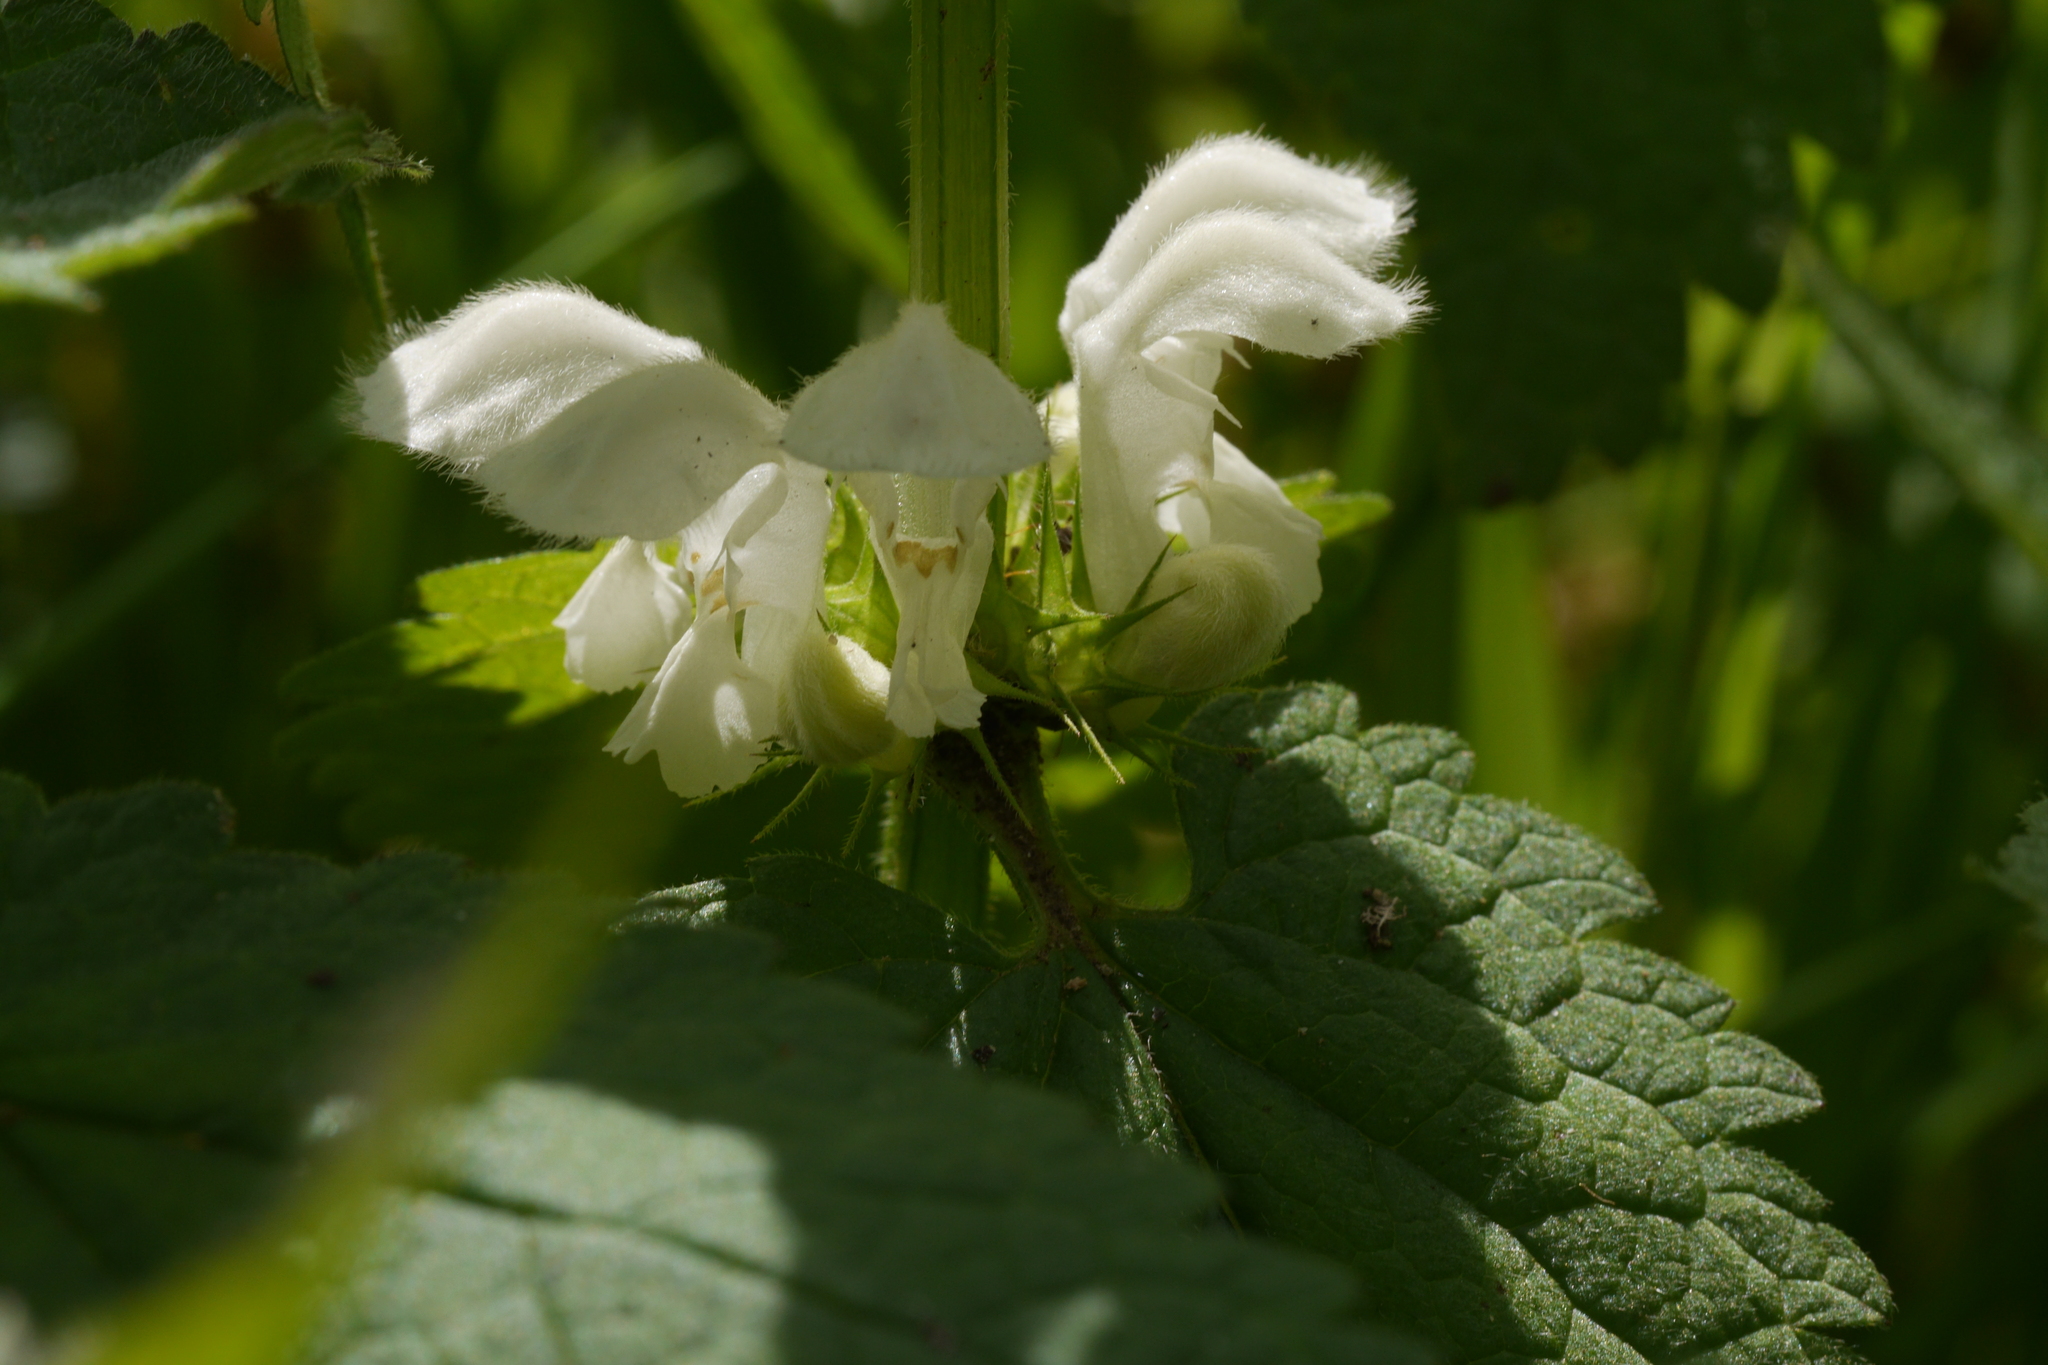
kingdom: Plantae
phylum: Tracheophyta
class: Magnoliopsida
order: Lamiales
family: Lamiaceae
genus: Lamium
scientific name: Lamium album
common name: White dead-nettle
